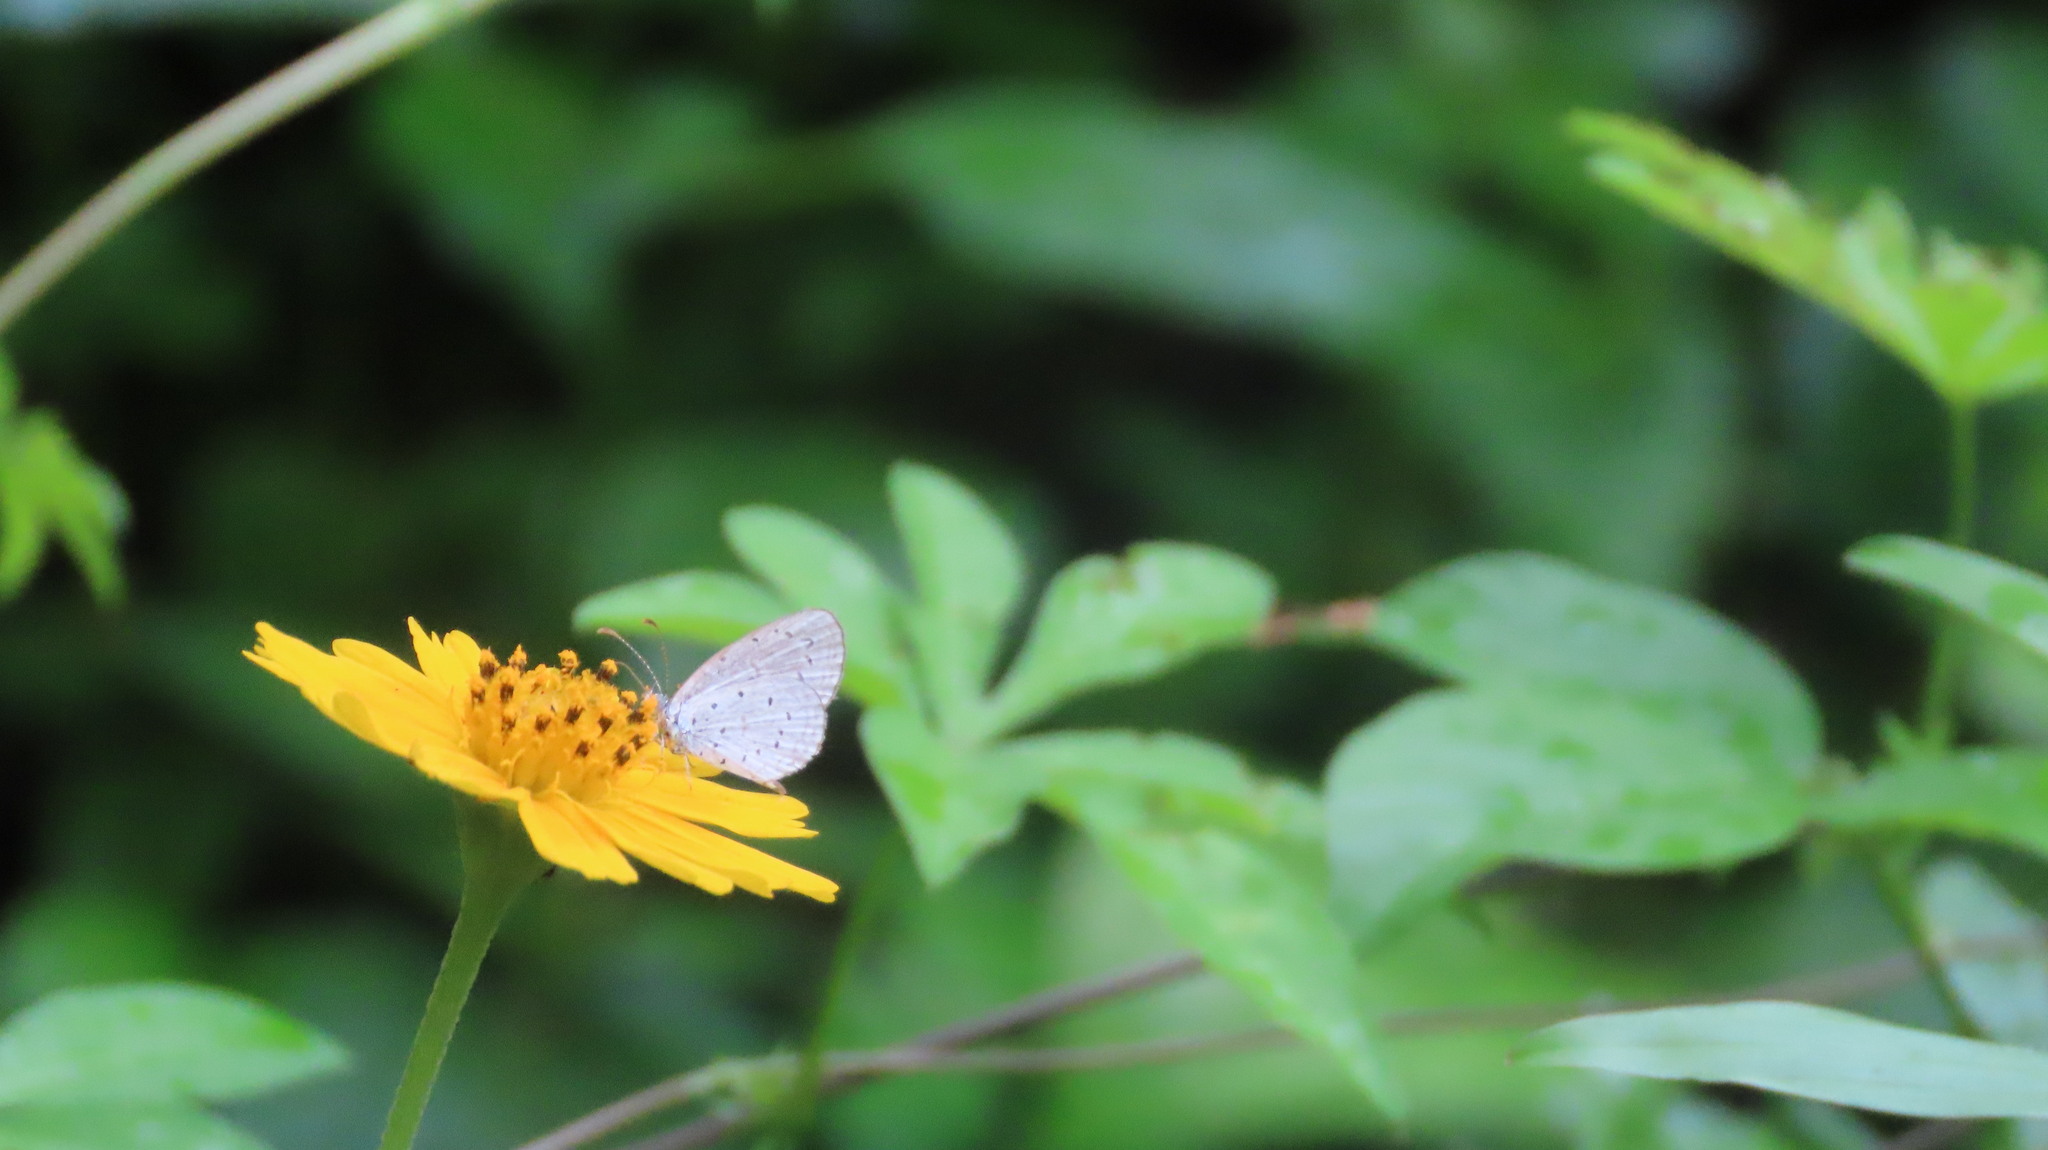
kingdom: Animalia
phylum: Arthropoda
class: Insecta
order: Lepidoptera
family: Lycaenidae
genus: Zizula
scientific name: Zizula hylax
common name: Gaika blue
